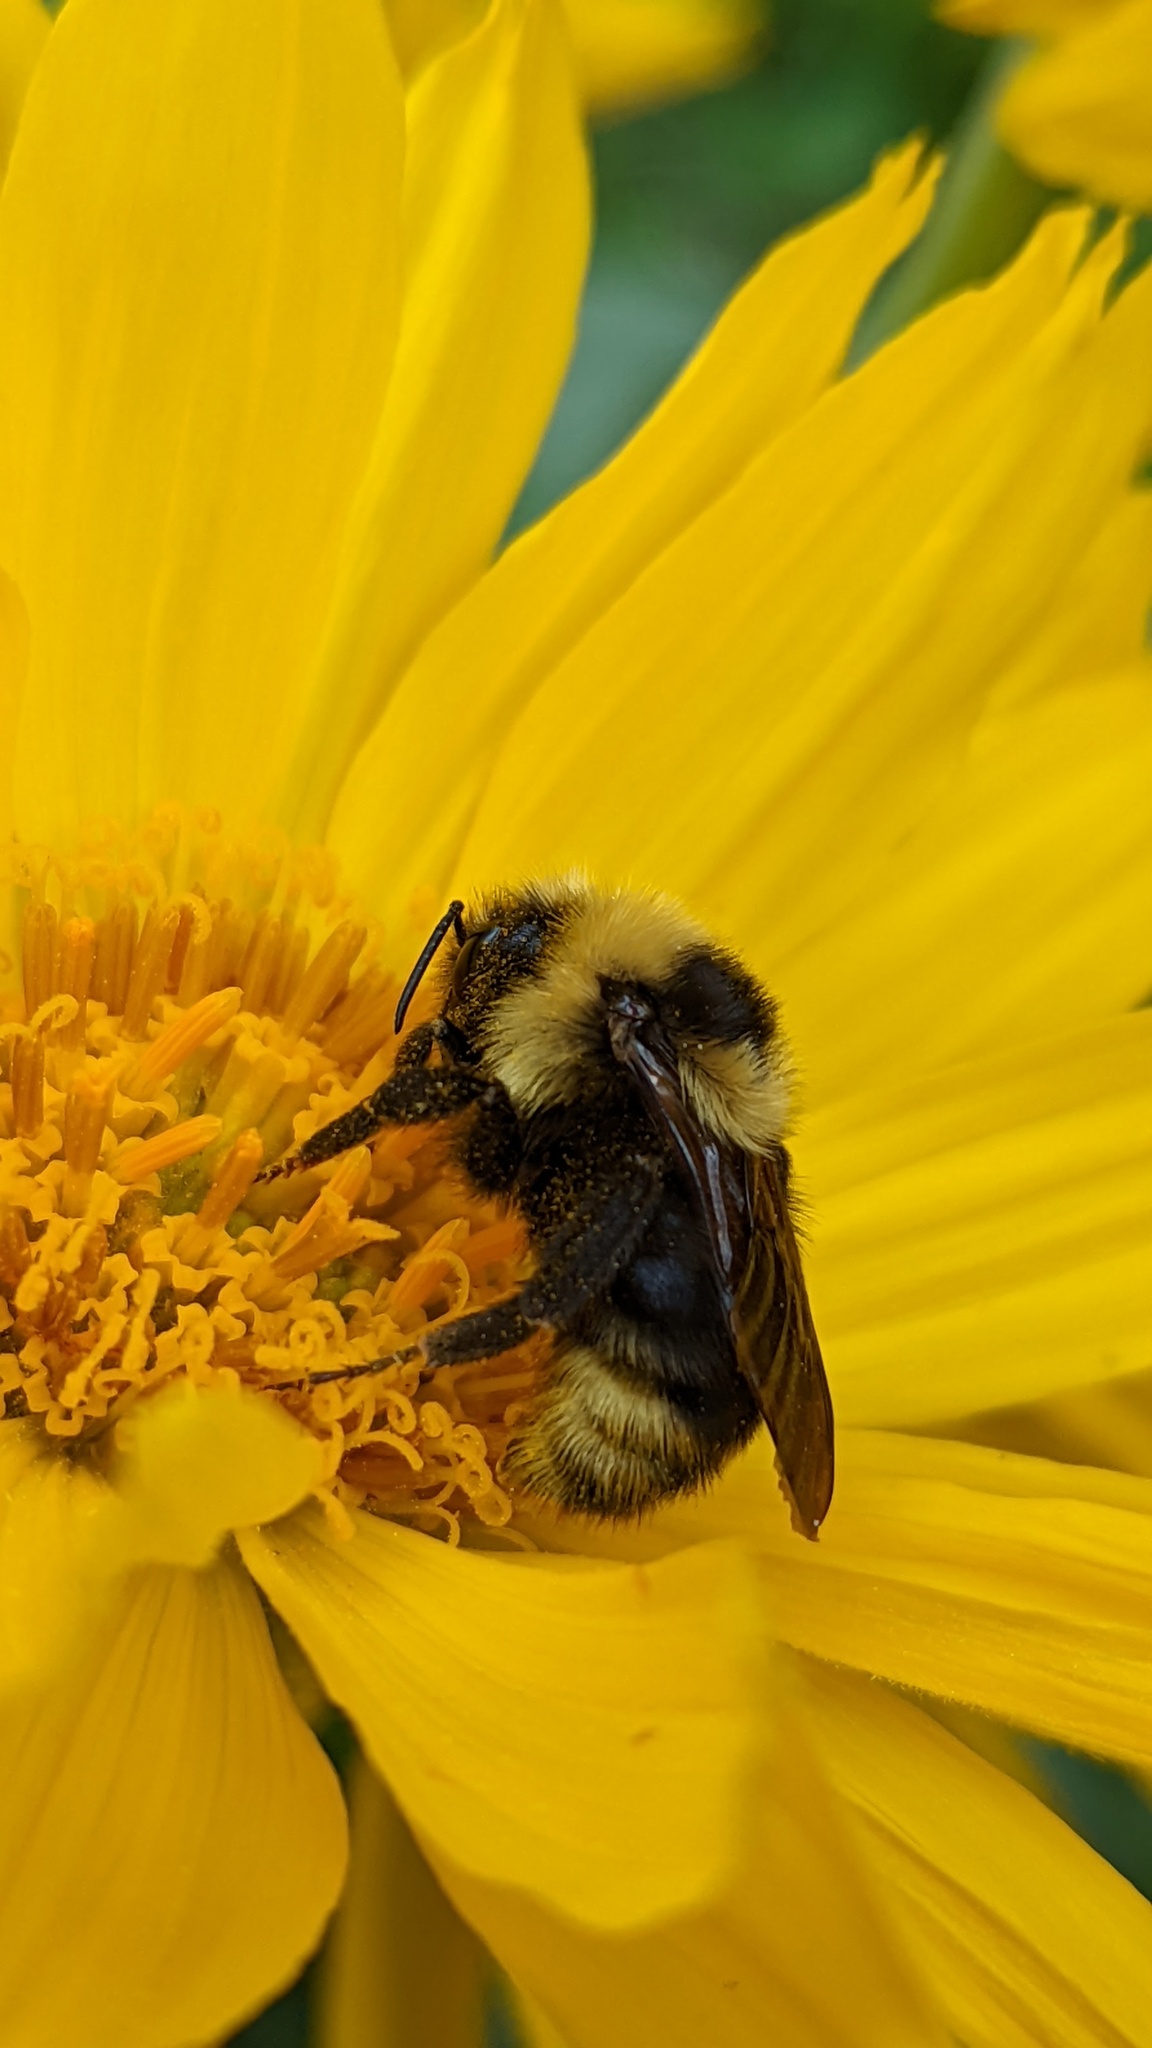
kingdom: Animalia
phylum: Arthropoda
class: Insecta
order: Hymenoptera
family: Apidae
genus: Bombus
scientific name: Bombus insularis
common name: Indiscriminate cuckoo bumble bee
